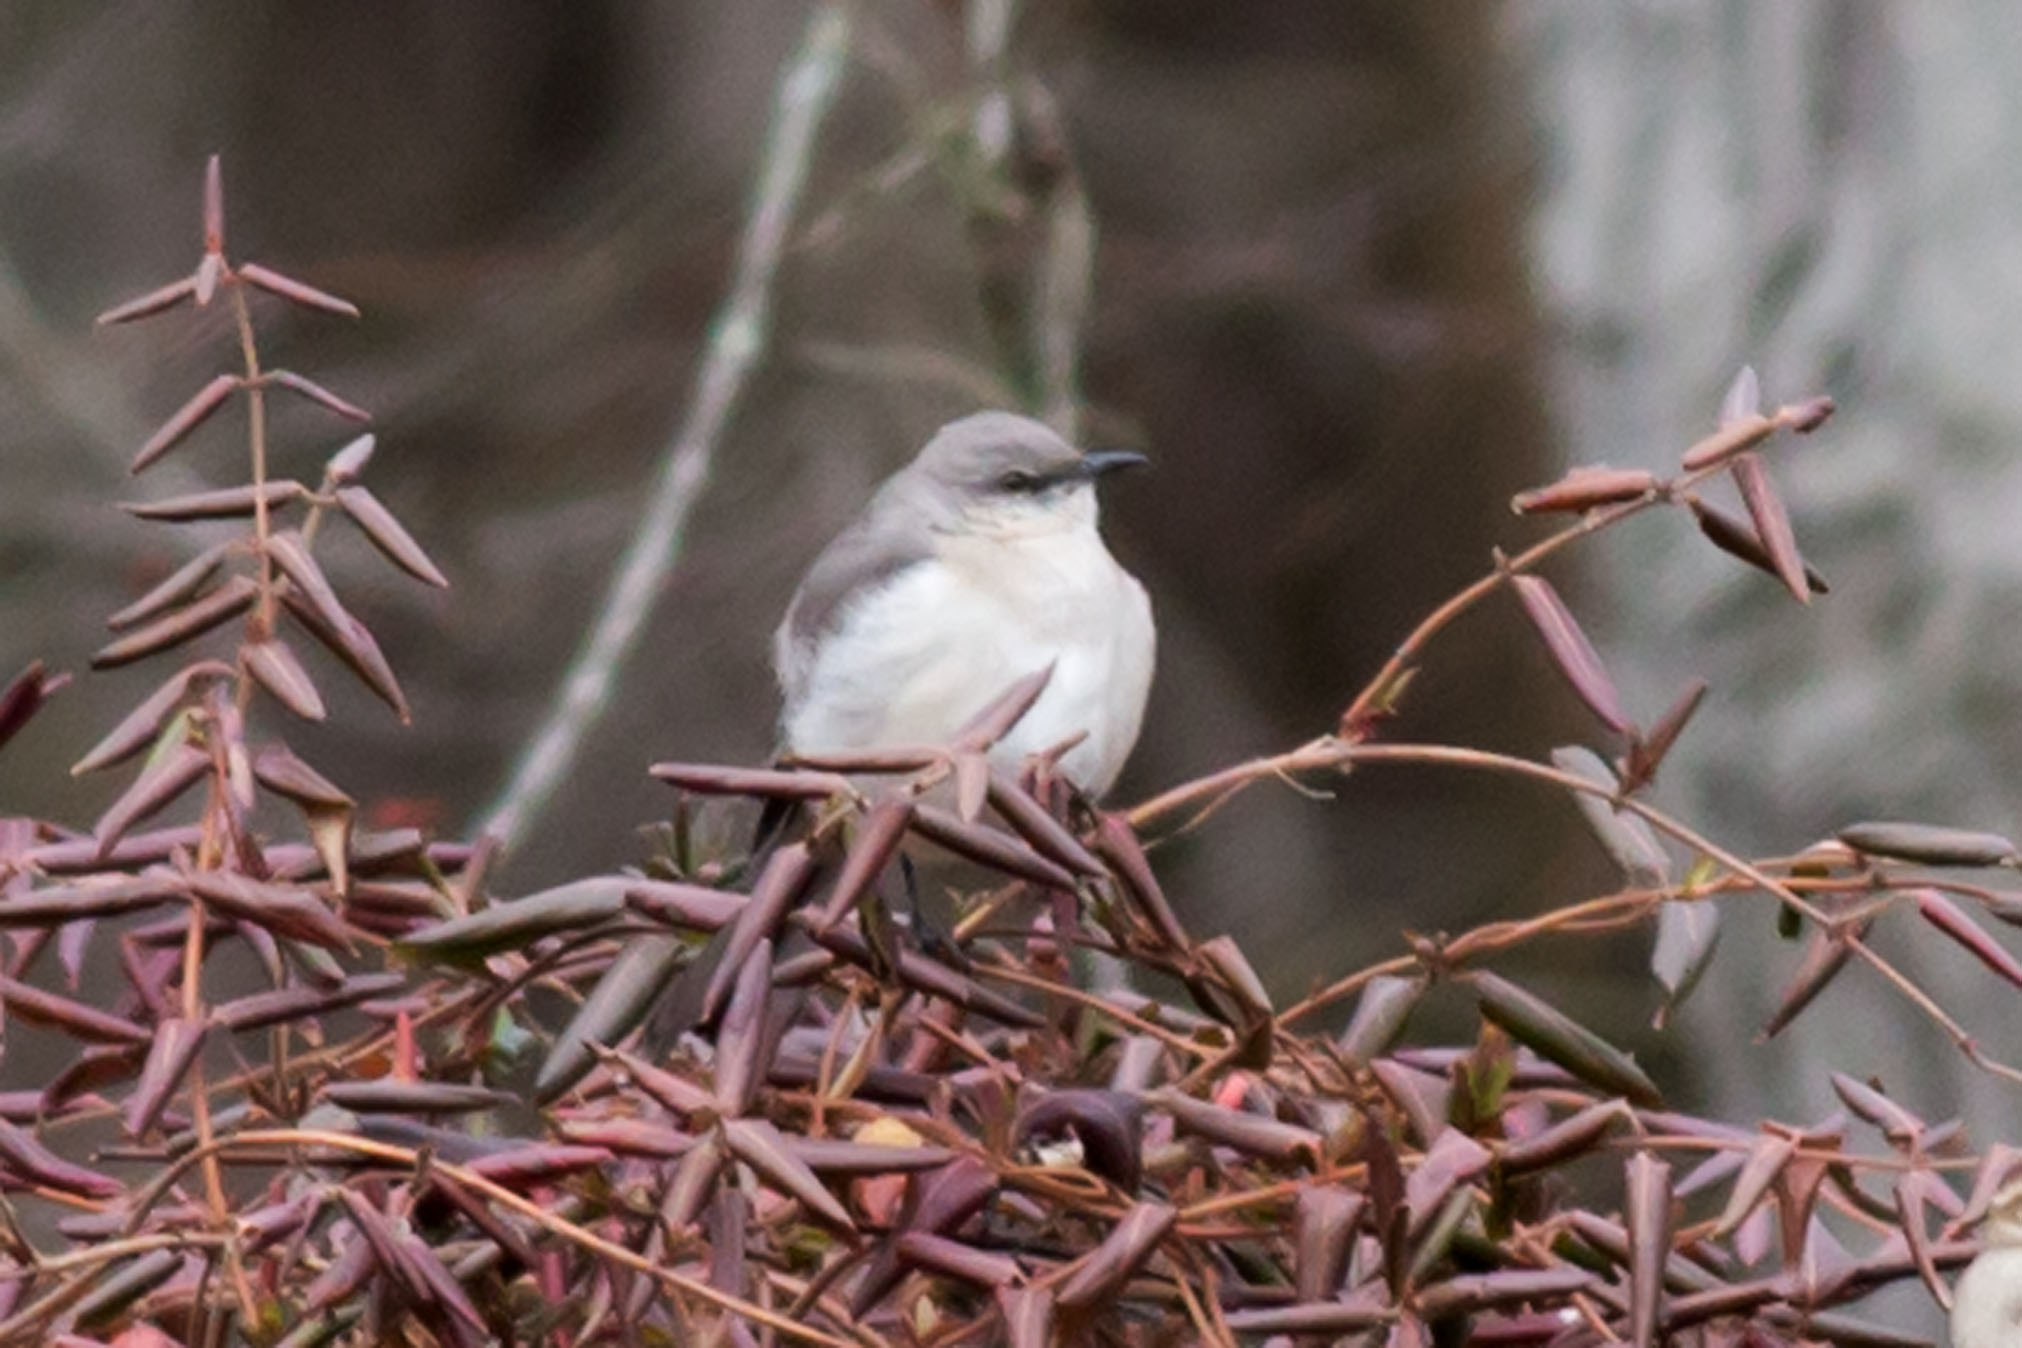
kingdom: Animalia
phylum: Chordata
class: Aves
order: Passeriformes
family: Mimidae
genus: Mimus
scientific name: Mimus polyglottos
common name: Northern mockingbird
